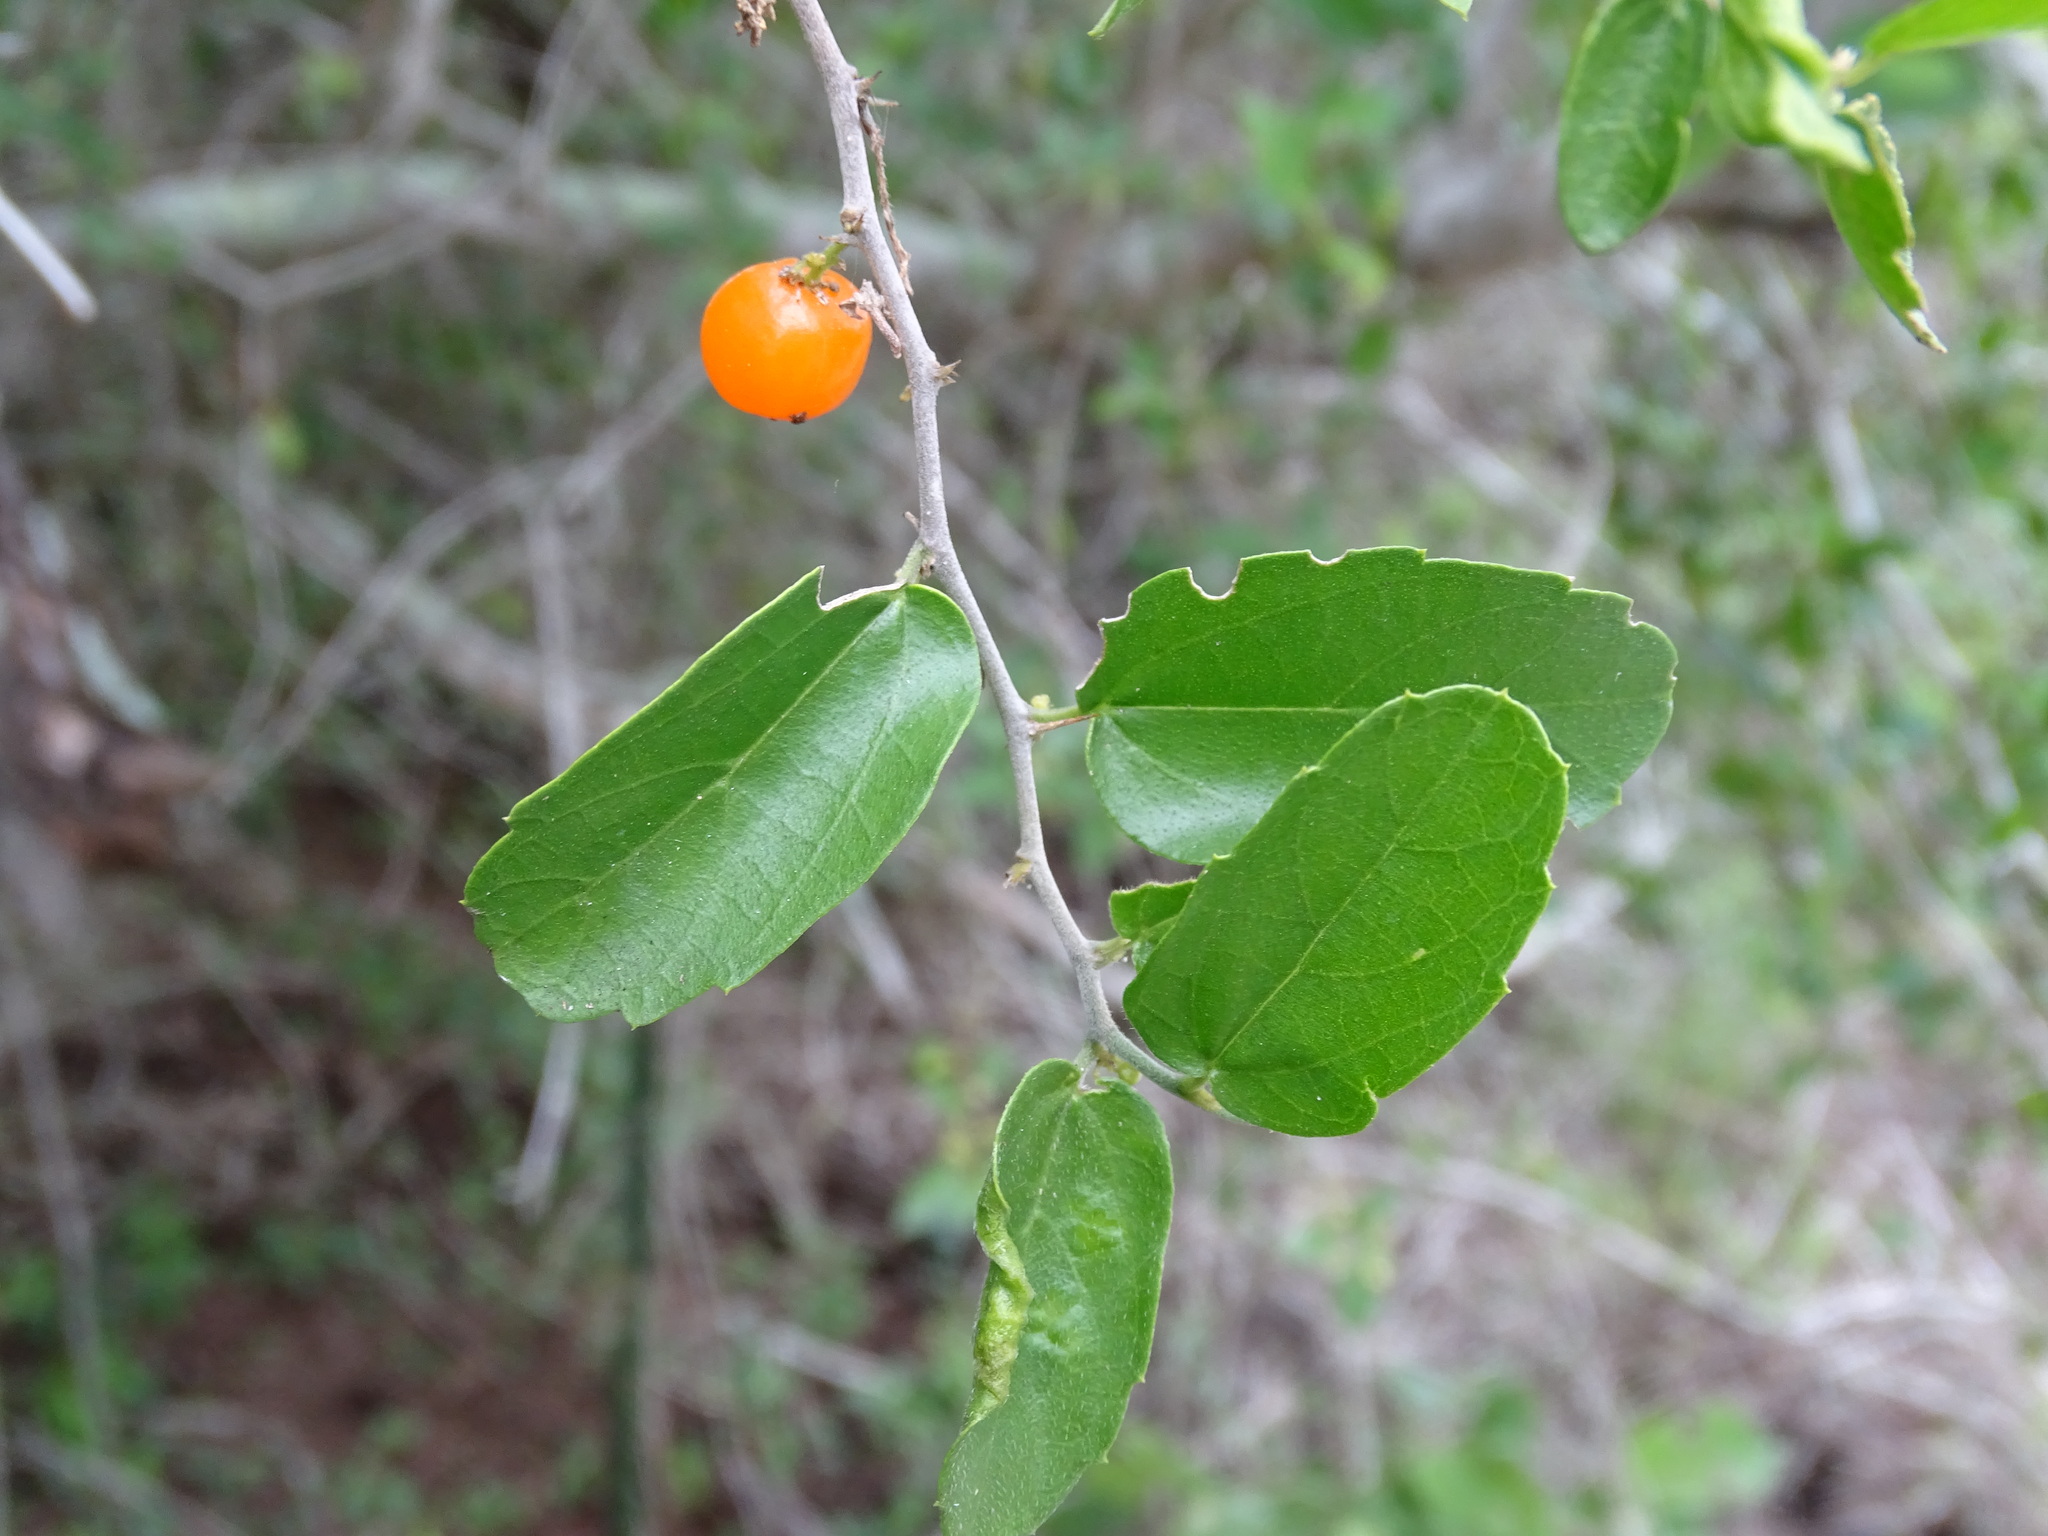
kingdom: Plantae
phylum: Tracheophyta
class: Magnoliopsida
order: Rosales
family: Cannabaceae
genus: Celtis
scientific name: Celtis pallida
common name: Desert hackberry
